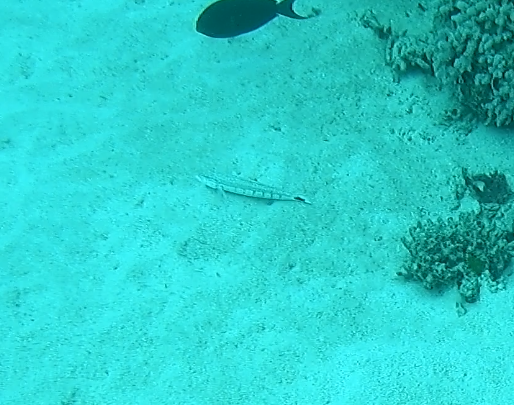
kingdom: Animalia
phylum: Chordata
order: Perciformes
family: Pinguipedidae
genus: Parapercis
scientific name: Parapercis queenslandica
